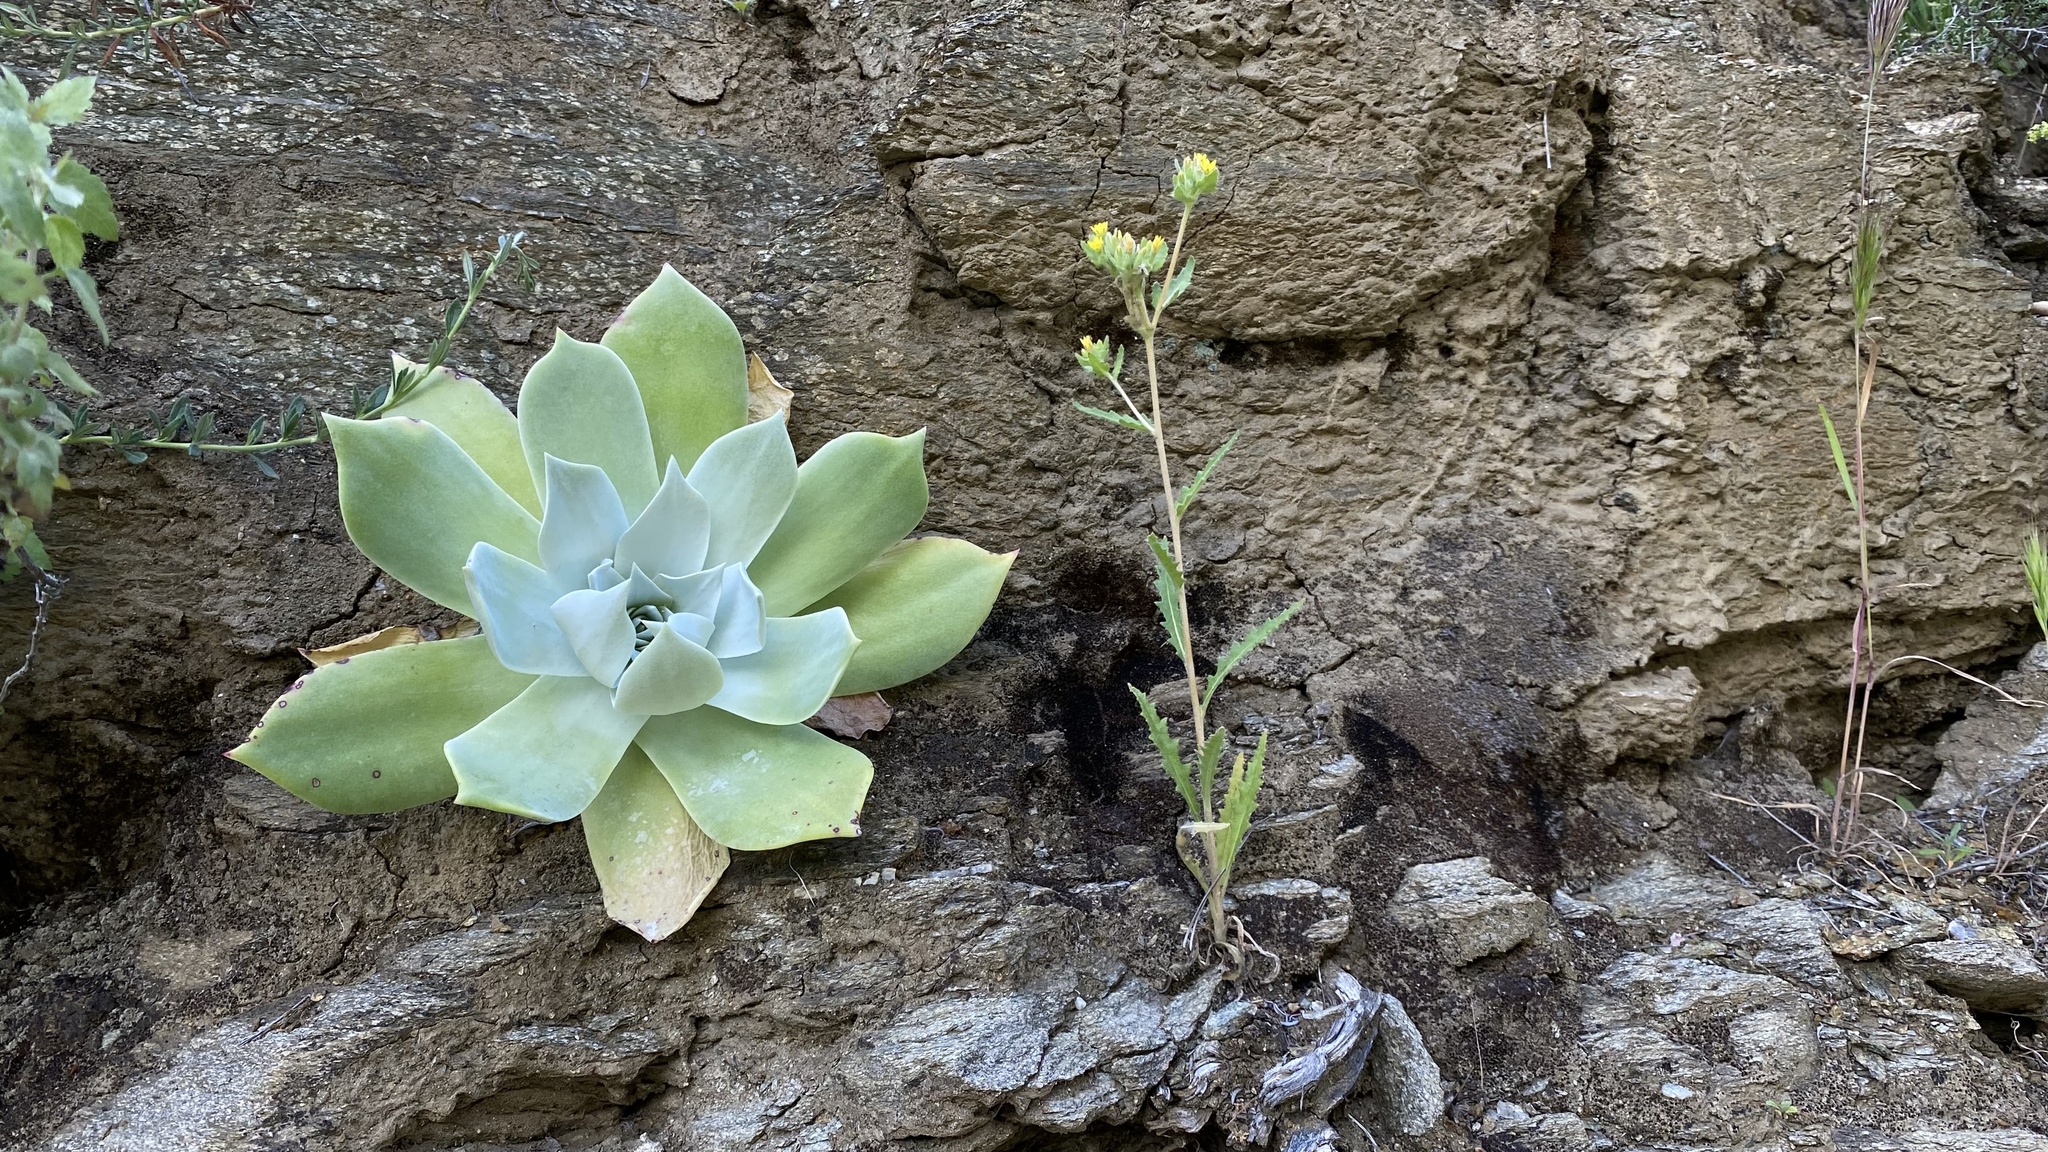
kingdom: Plantae
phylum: Tracheophyta
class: Magnoliopsida
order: Saxifragales
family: Crassulaceae
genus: Dudleya
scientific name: Dudleya pulverulenta
